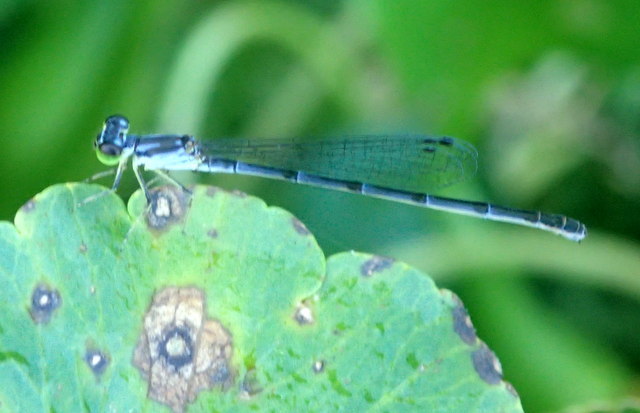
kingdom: Animalia
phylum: Arthropoda
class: Insecta
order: Odonata
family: Coenagrionidae
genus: Ischnura
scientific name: Ischnura posita
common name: Fragile forktail
